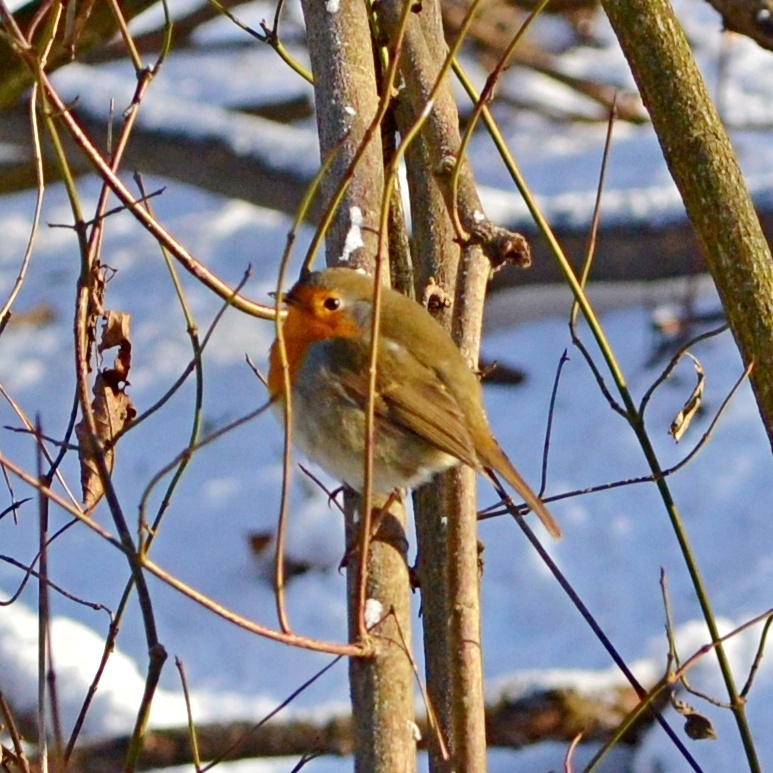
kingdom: Animalia
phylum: Chordata
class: Aves
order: Passeriformes
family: Muscicapidae
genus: Erithacus
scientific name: Erithacus rubecula
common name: European robin
